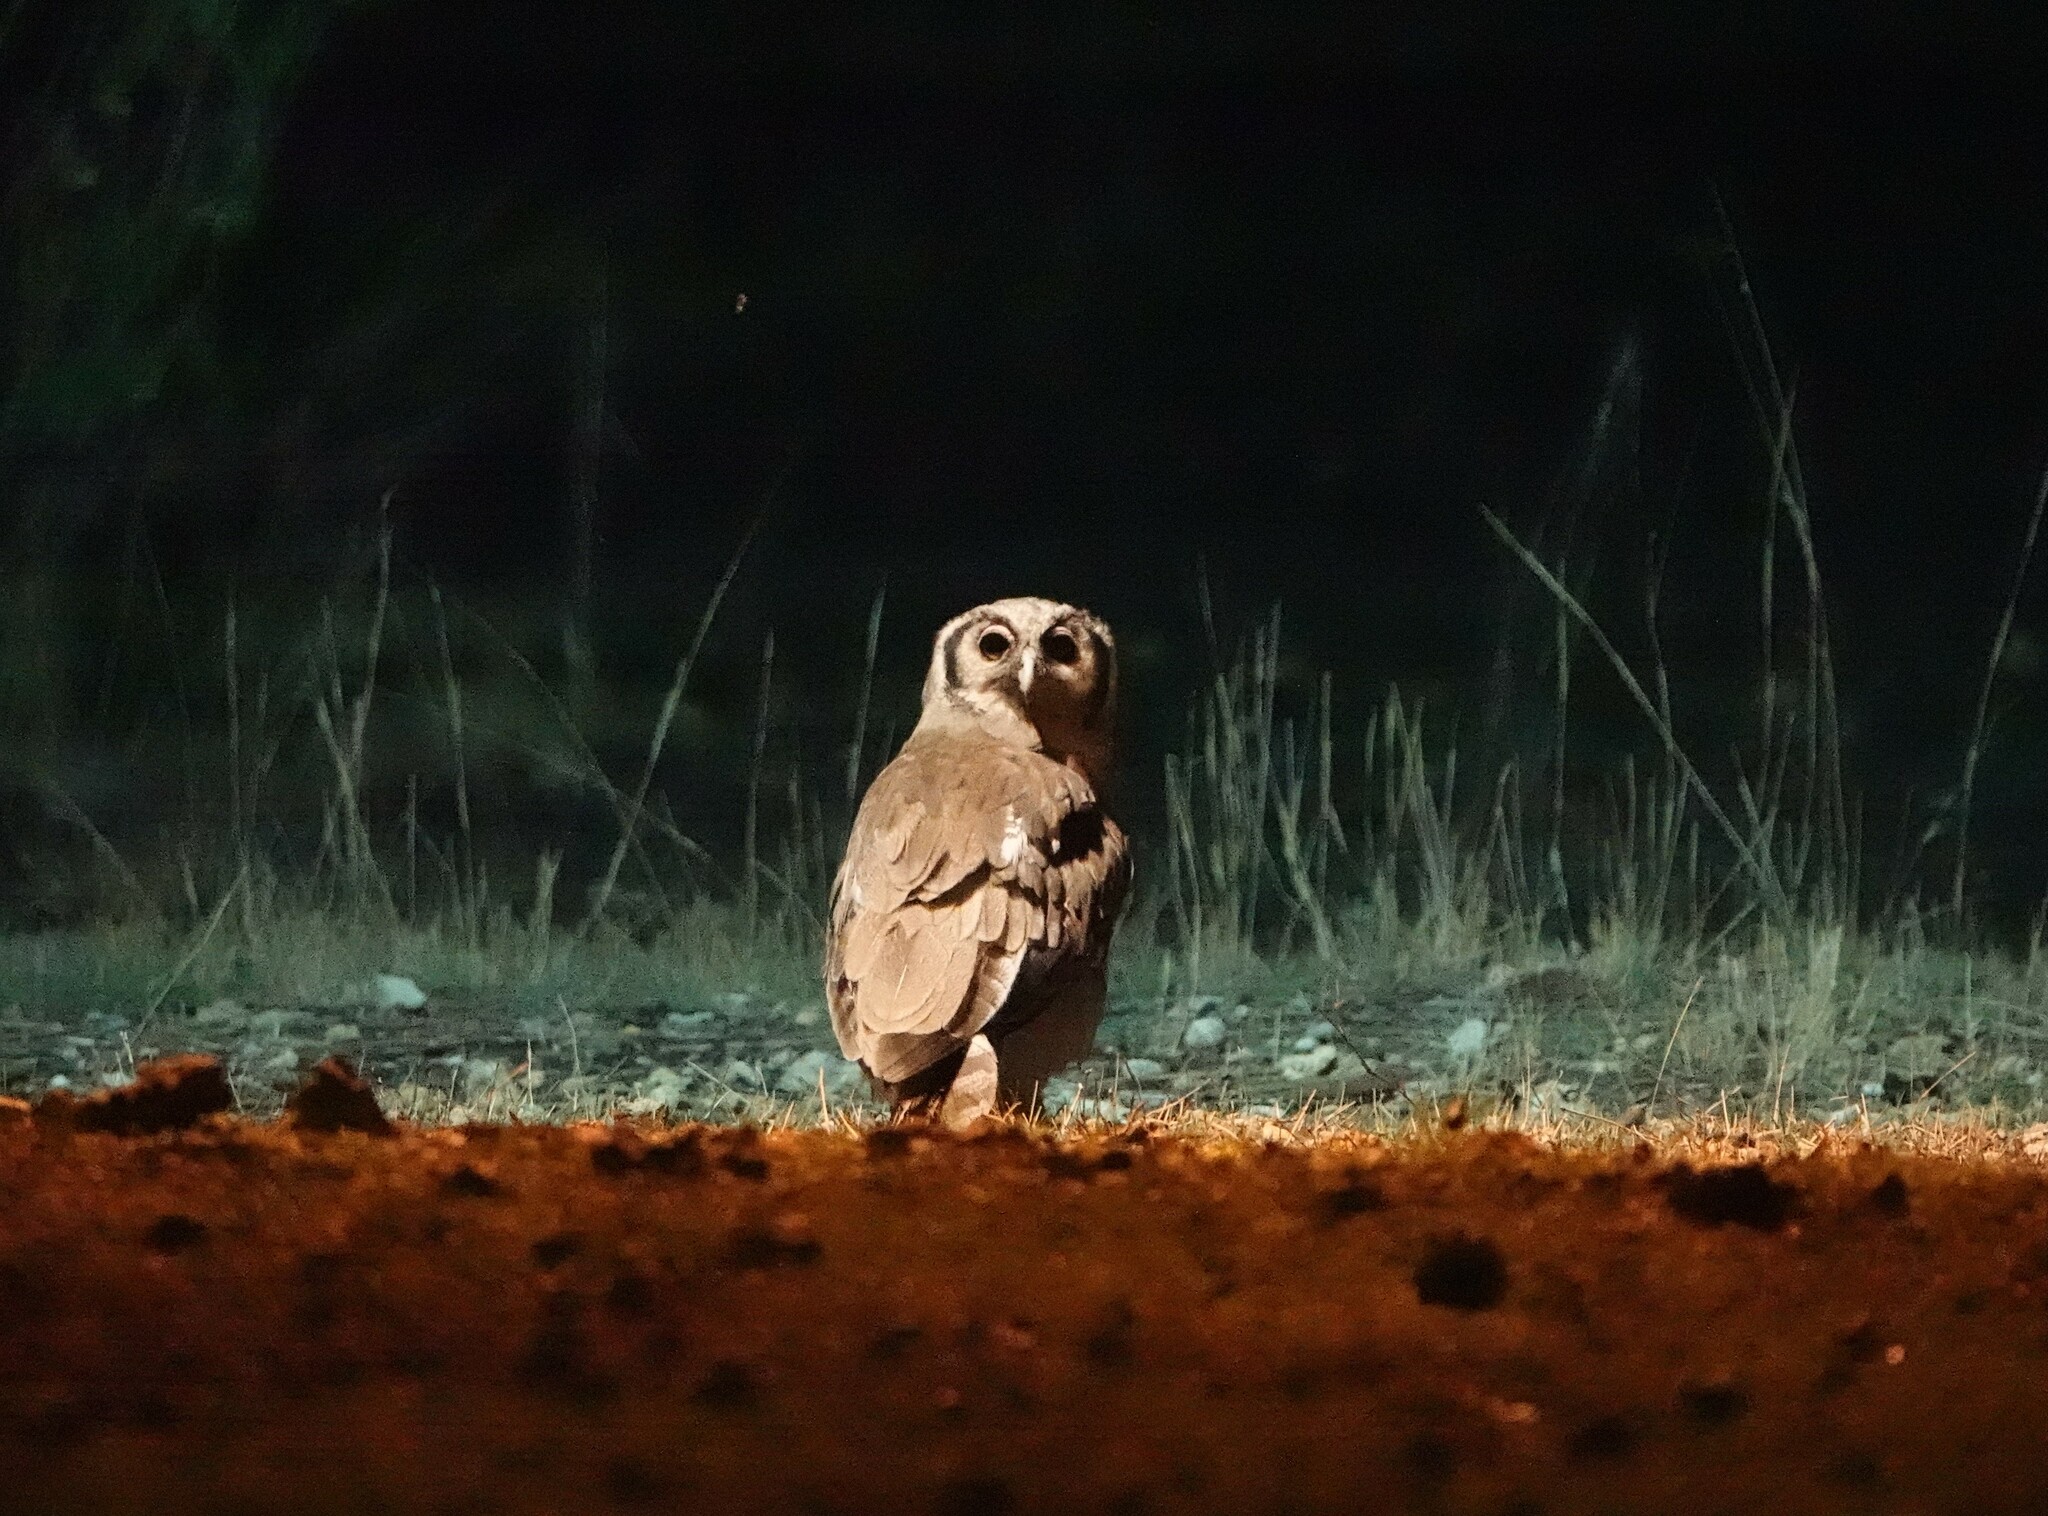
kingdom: Animalia
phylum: Chordata
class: Aves
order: Strigiformes
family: Strigidae
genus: Bubo
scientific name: Bubo lacteus
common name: Verreaux's eagle-owl
